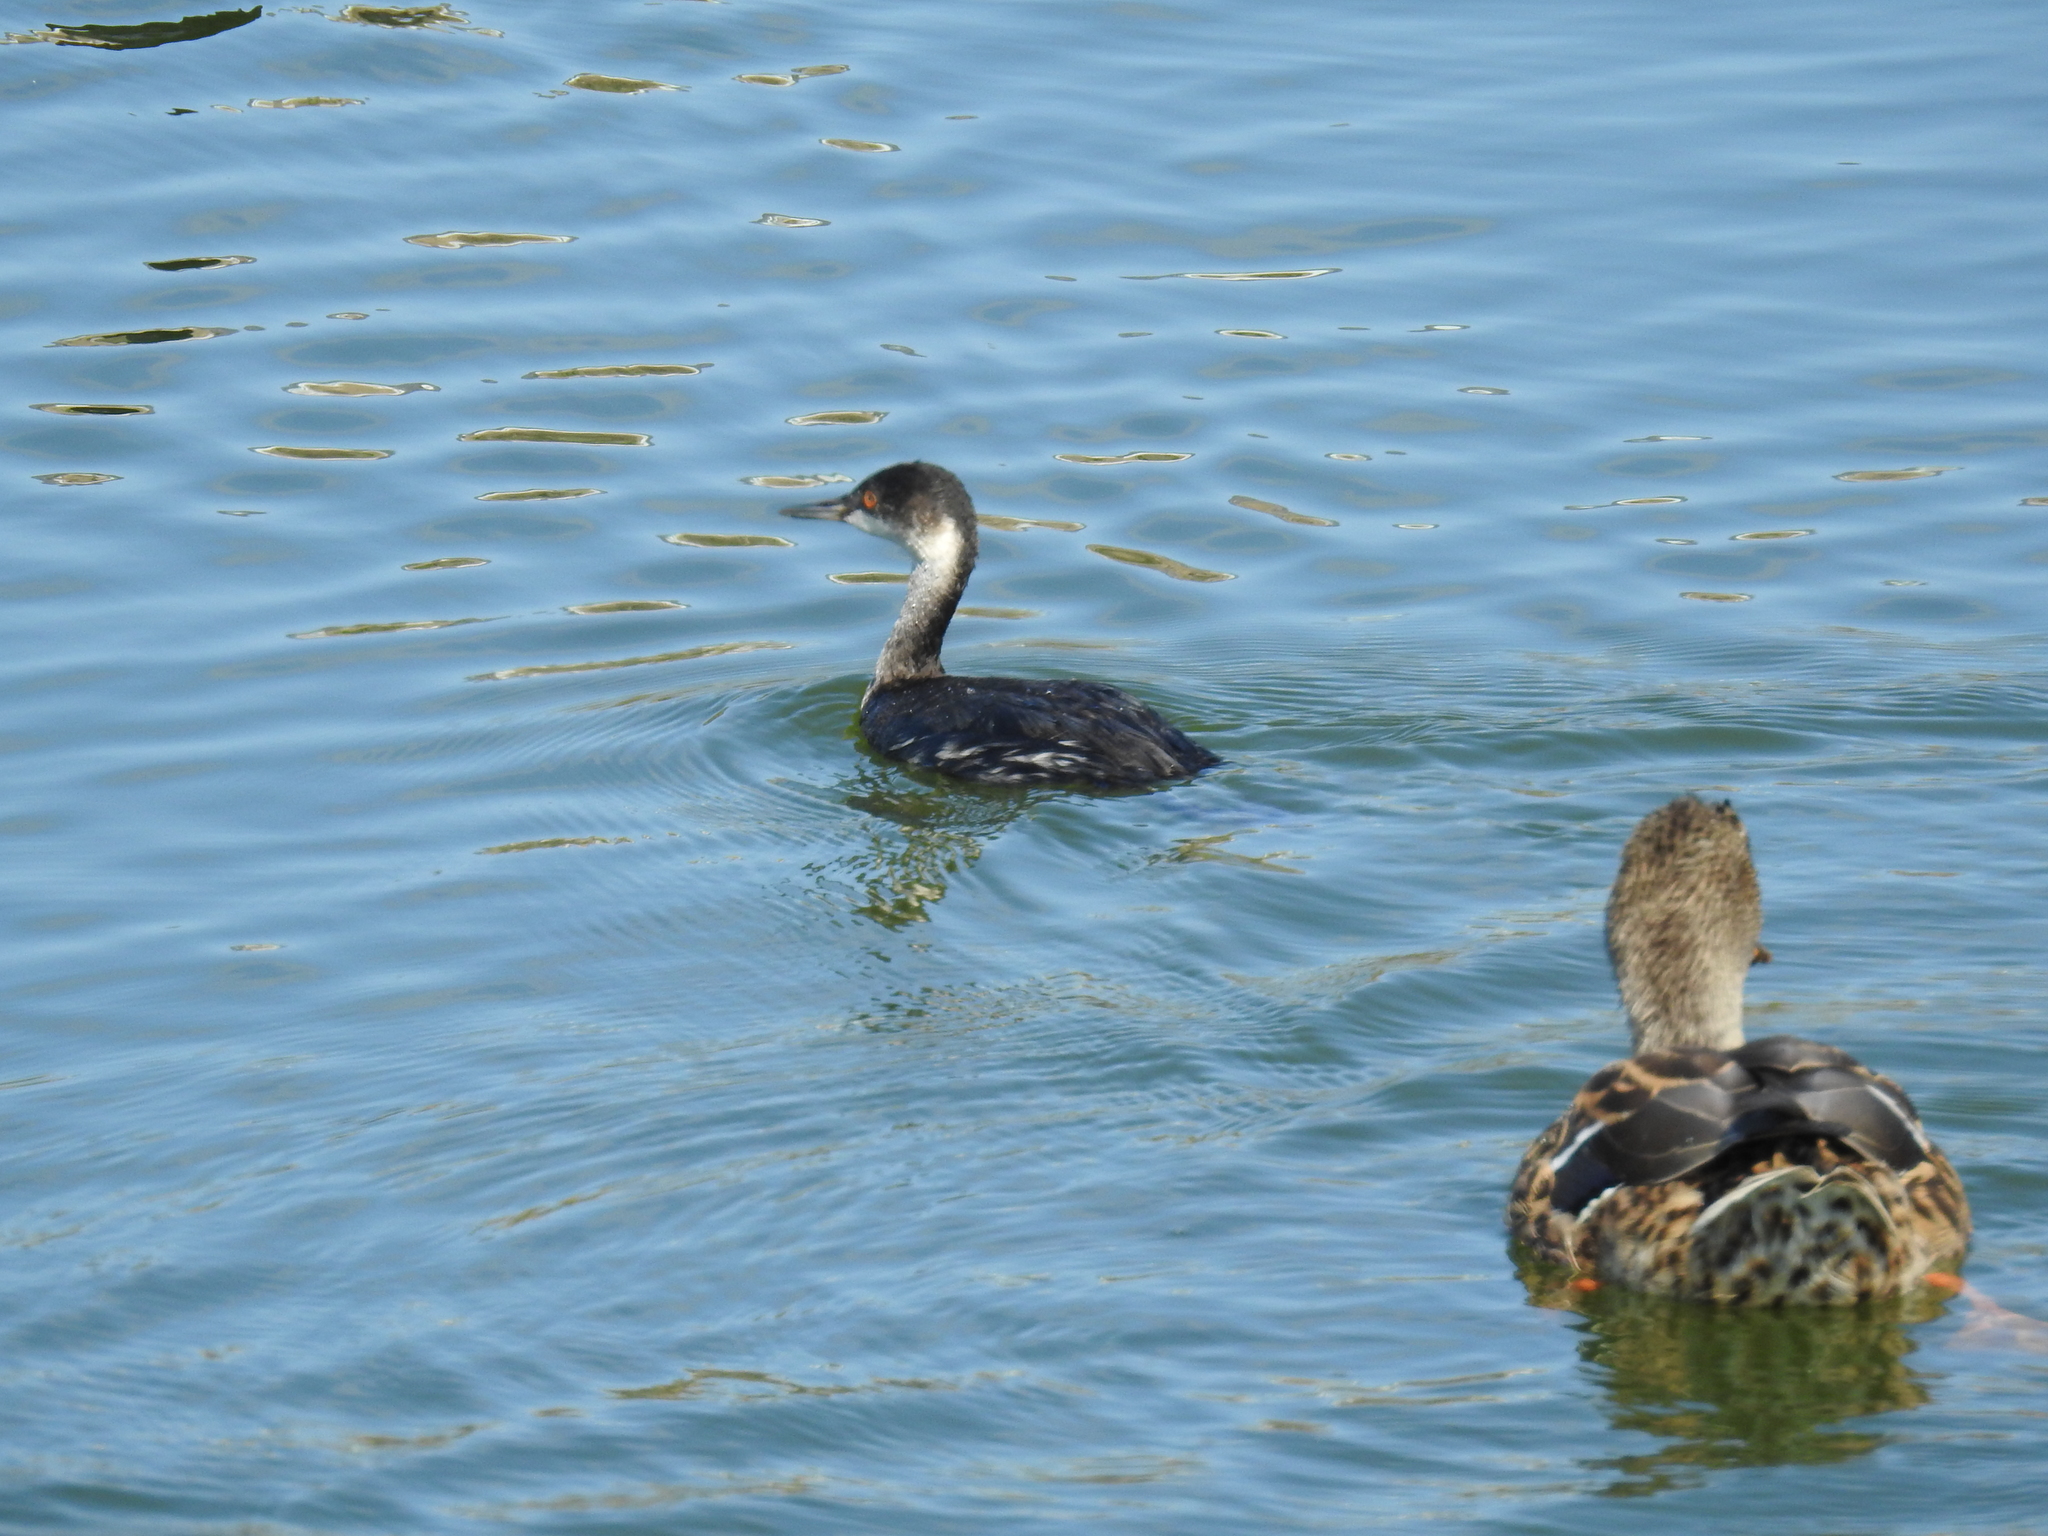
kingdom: Animalia
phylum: Chordata
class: Aves
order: Podicipediformes
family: Podicipedidae
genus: Podiceps
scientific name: Podiceps nigricollis
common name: Black-necked grebe
